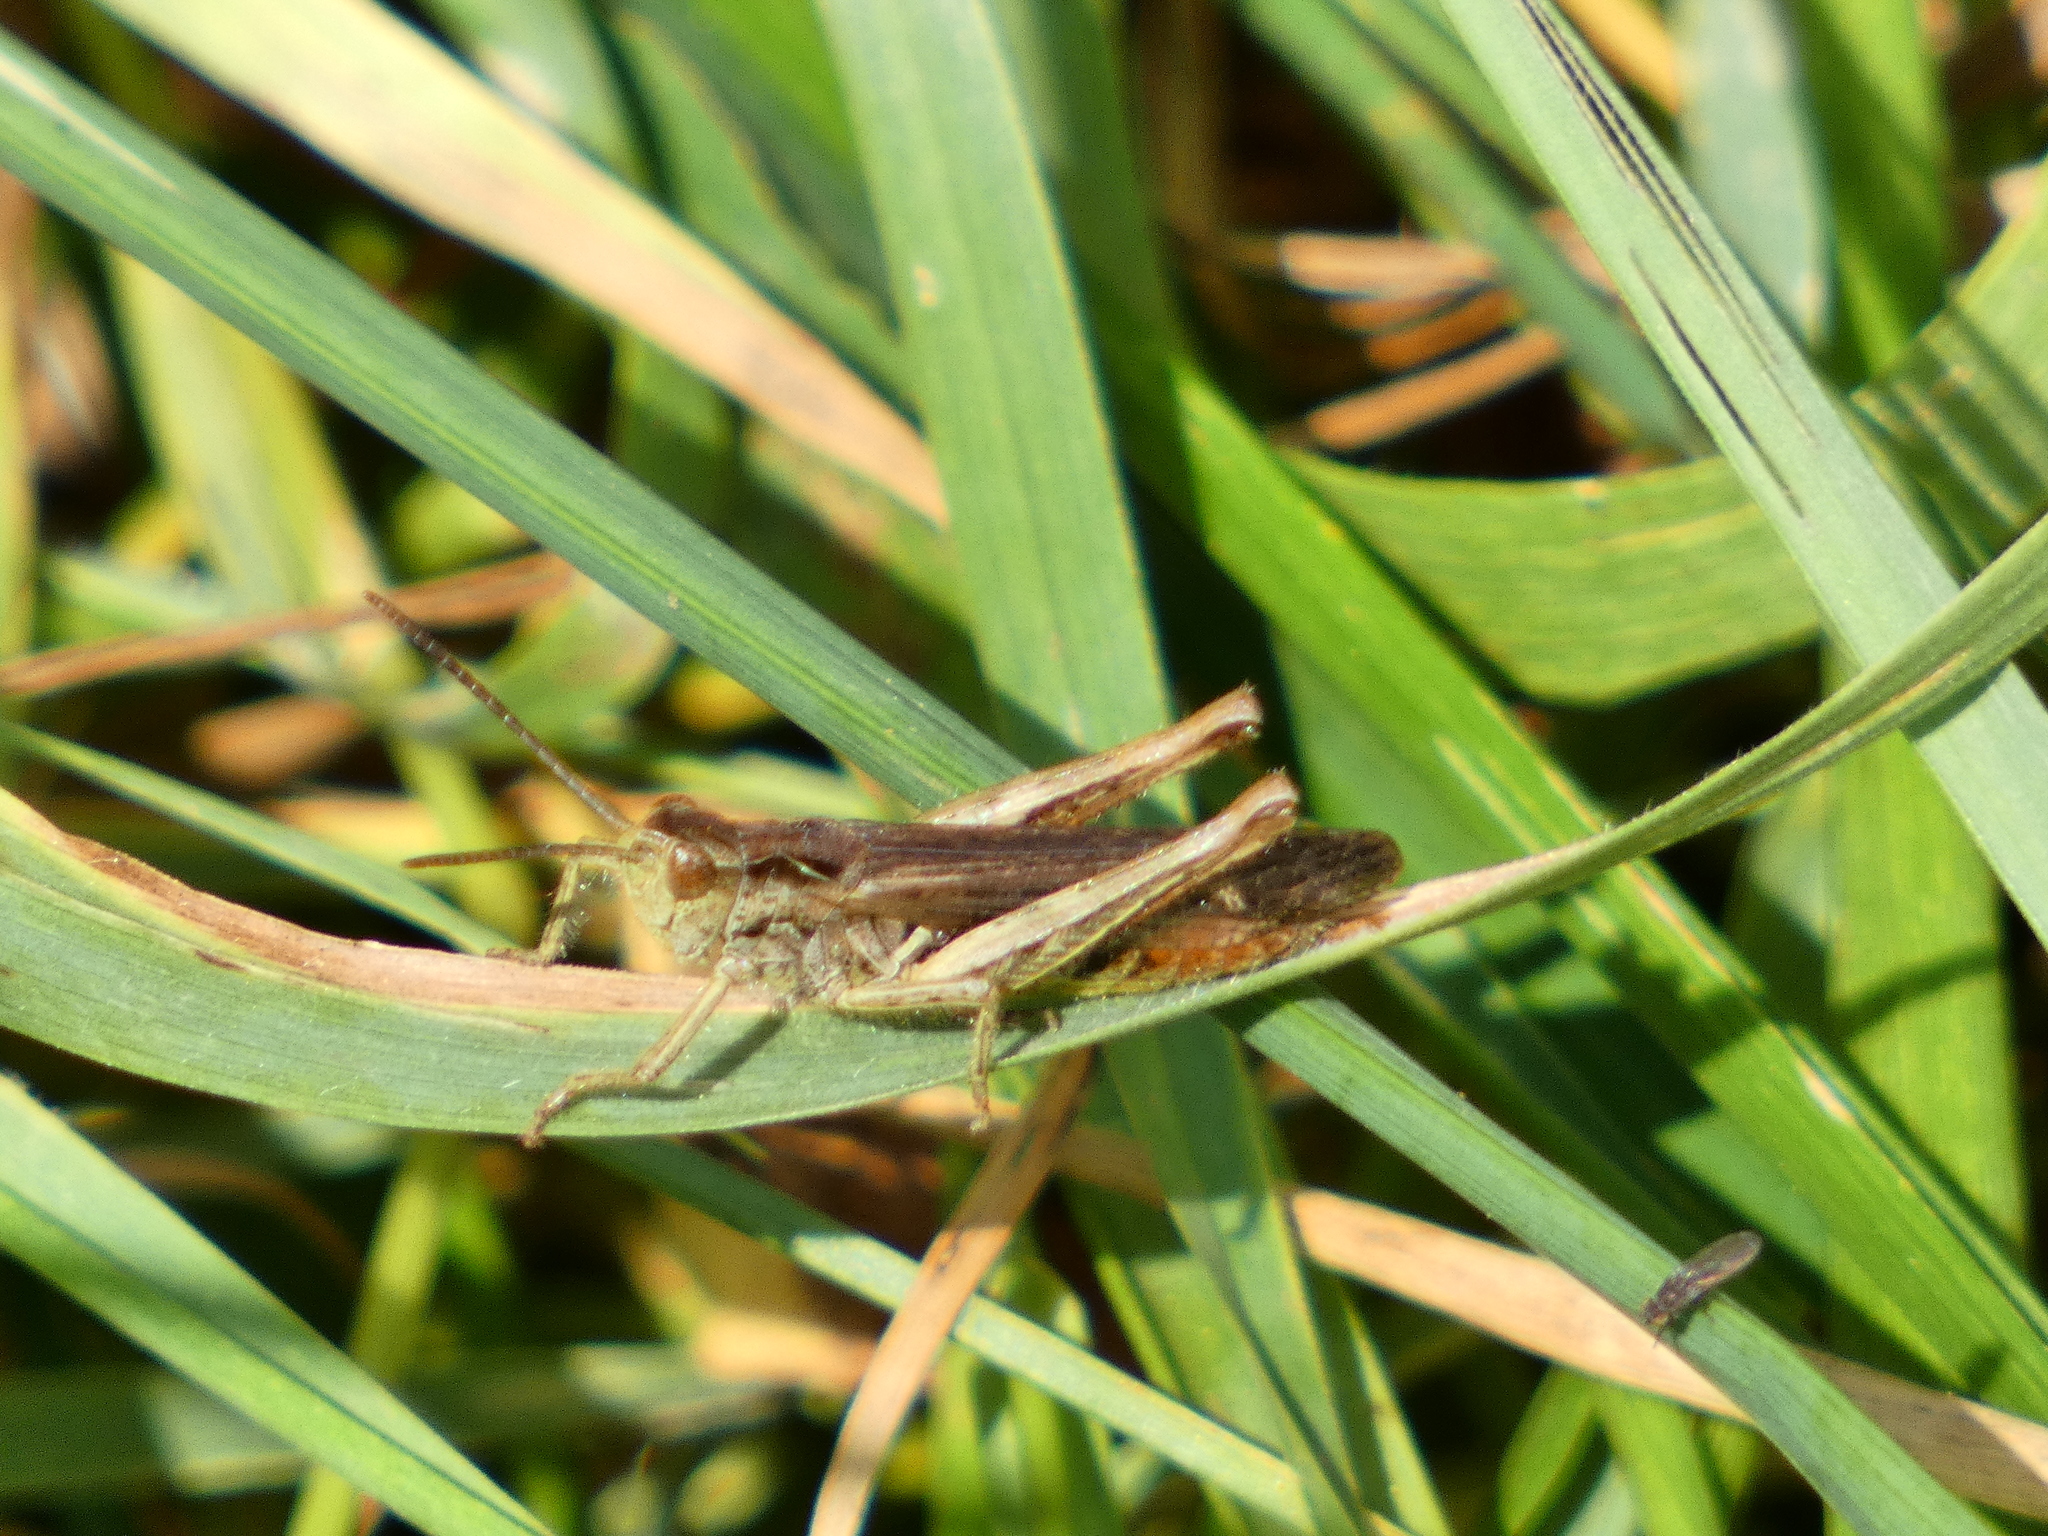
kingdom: Animalia
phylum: Arthropoda
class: Insecta
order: Orthoptera
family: Acrididae
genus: Chorthippus
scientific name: Chorthippus biguttulus
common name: Bow-winged grasshopper
